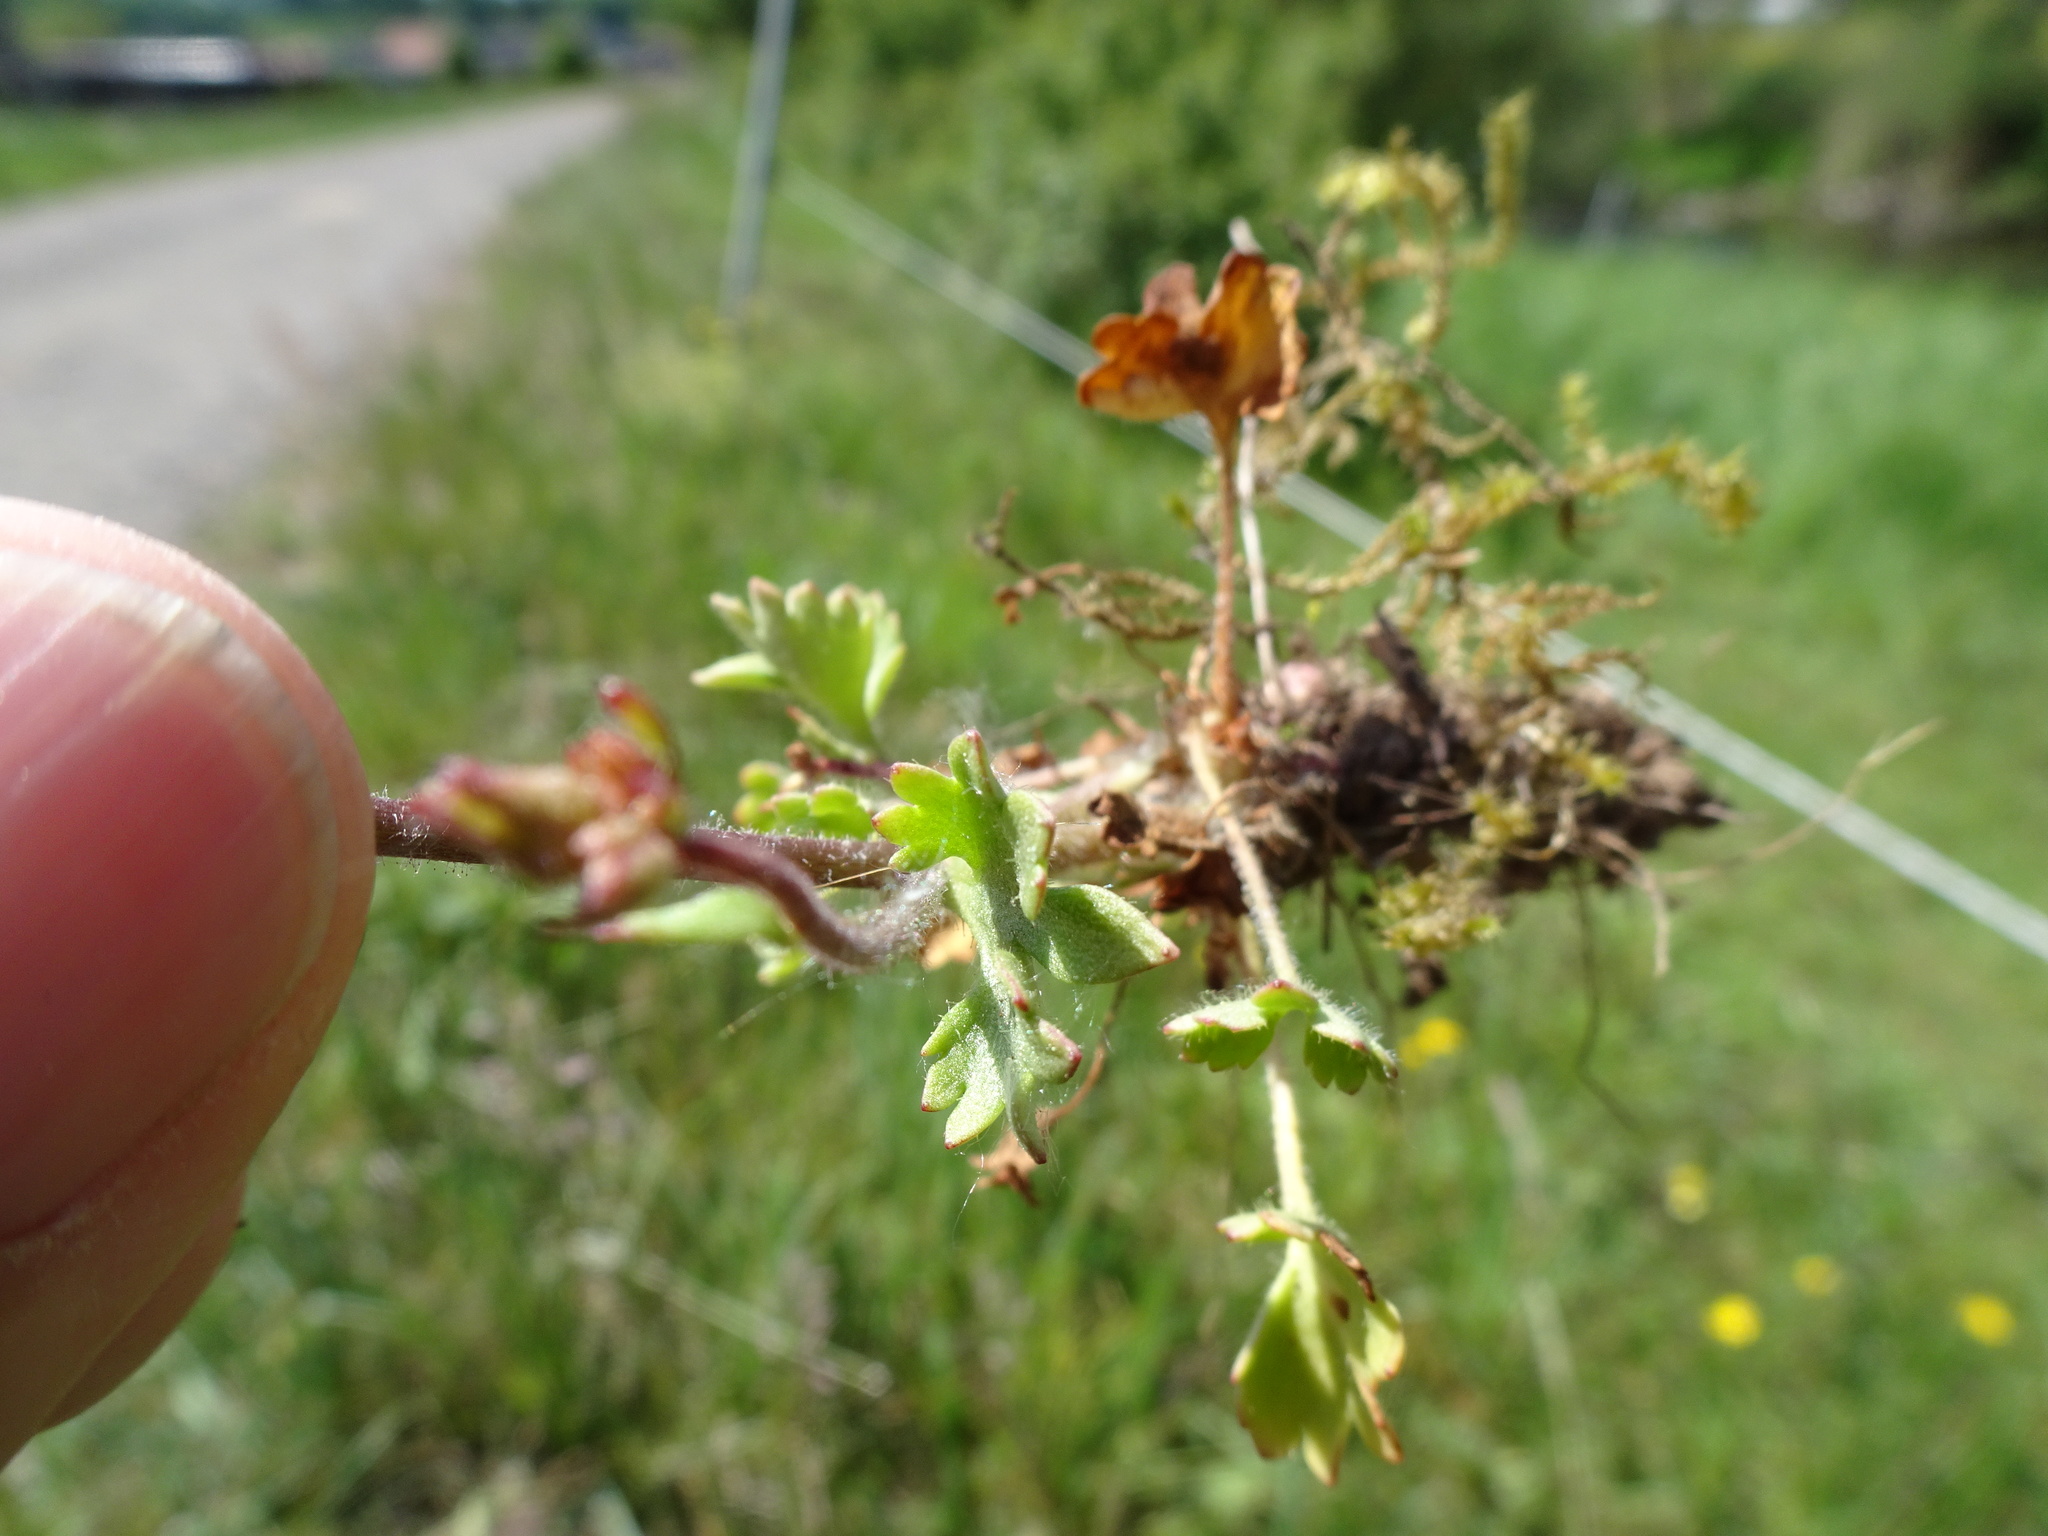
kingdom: Plantae
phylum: Tracheophyta
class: Magnoliopsida
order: Saxifragales
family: Saxifragaceae
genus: Saxifraga
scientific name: Saxifraga granulata
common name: Meadow saxifrage
